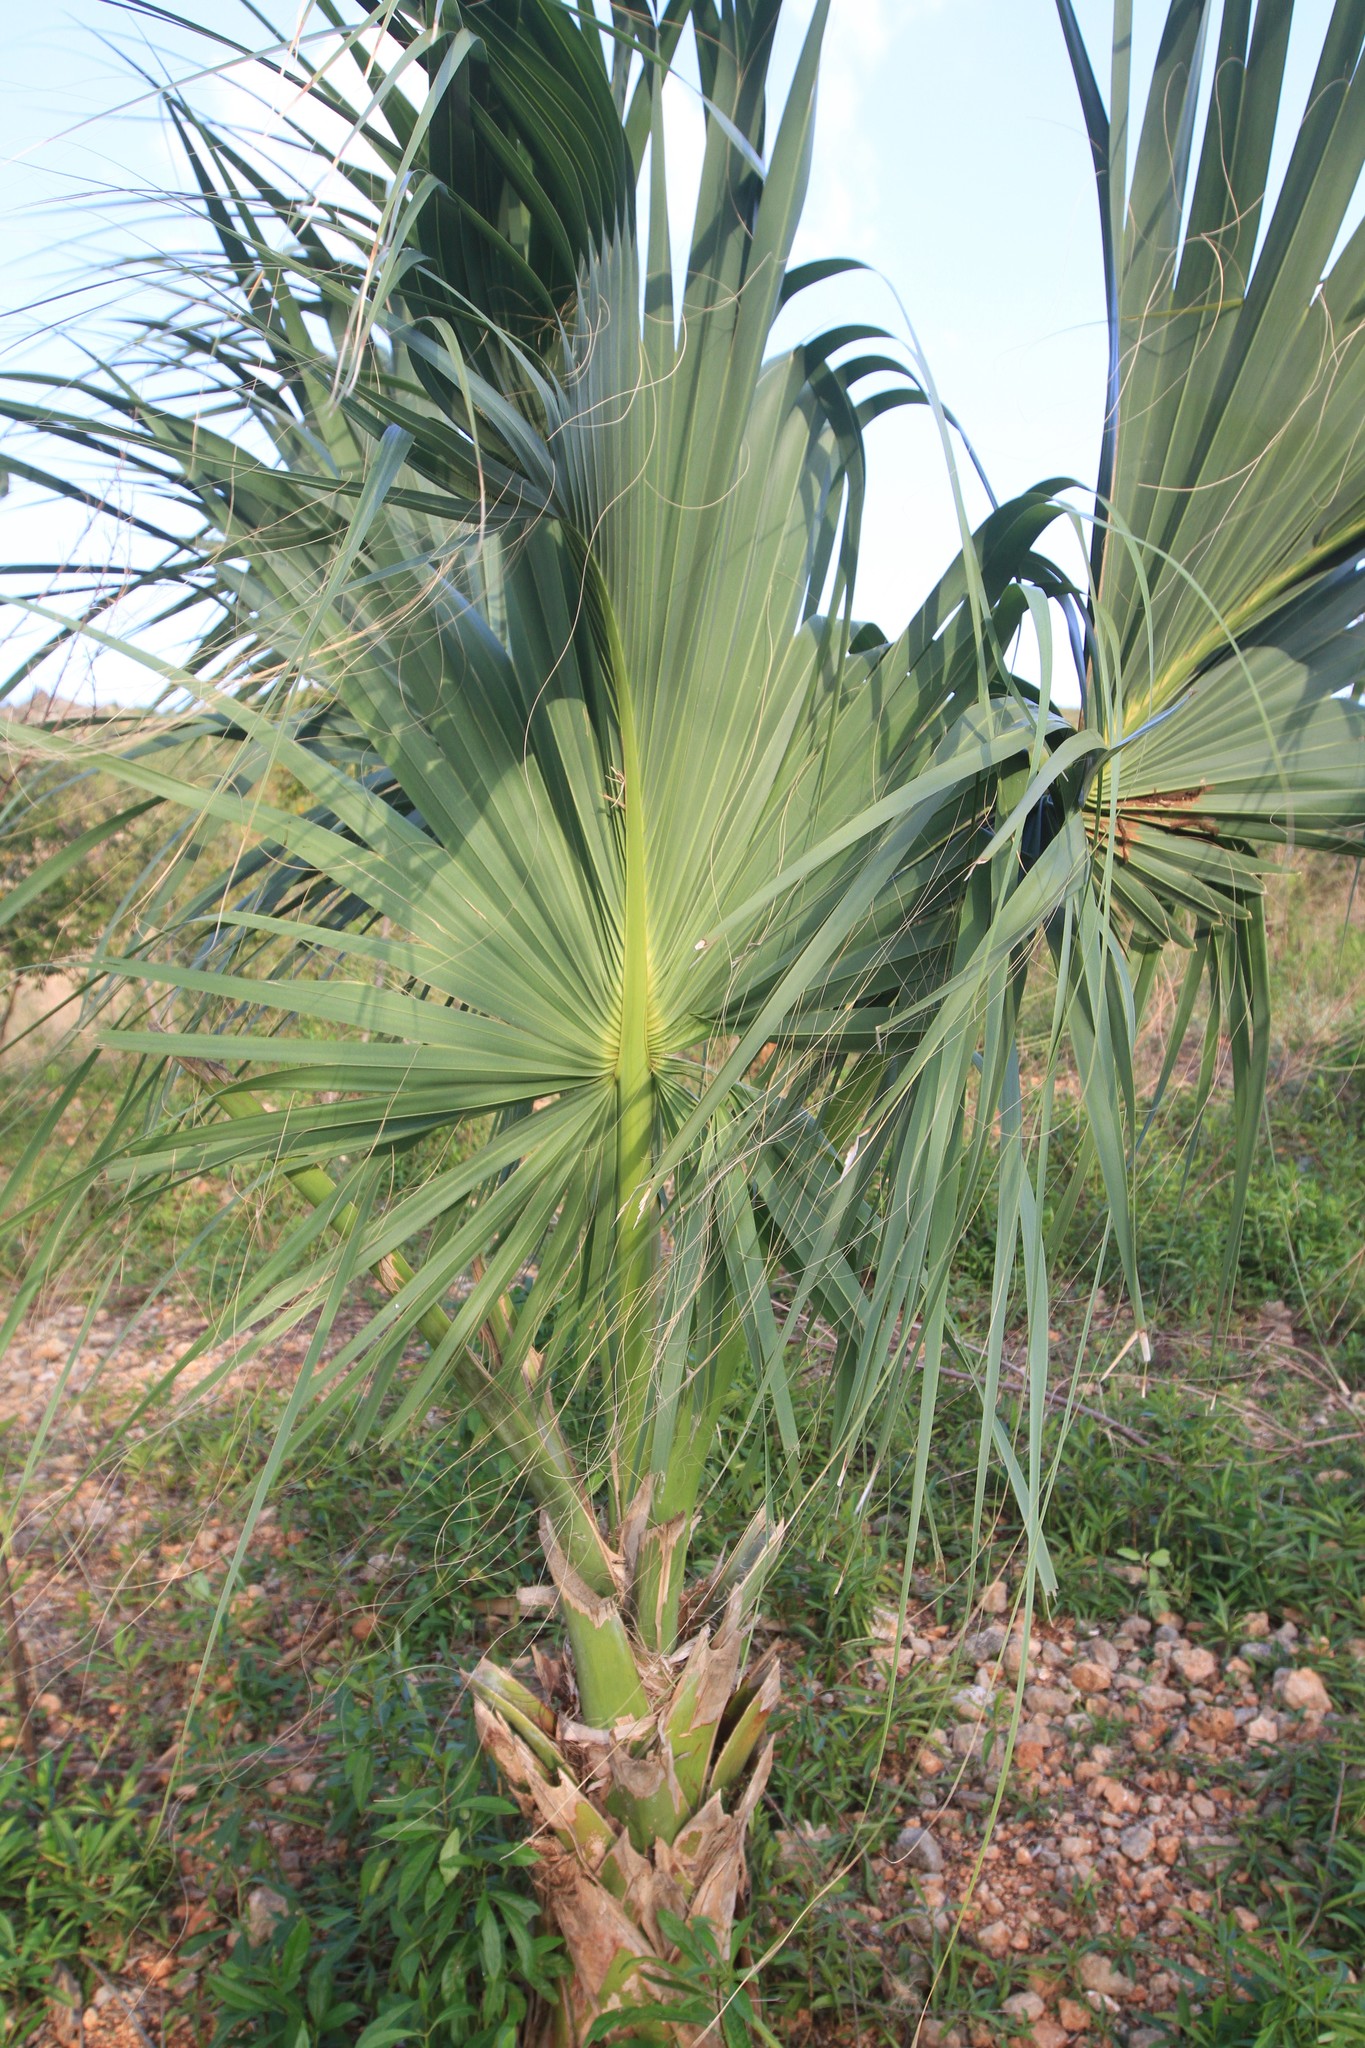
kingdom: Plantae
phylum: Tracheophyta
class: Liliopsida
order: Arecales
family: Arecaceae
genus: Sabal
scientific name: Sabal causiarum
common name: Puerto rican hat palm
